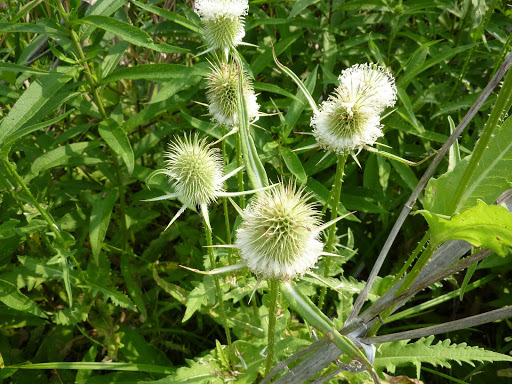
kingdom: Plantae
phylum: Tracheophyta
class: Magnoliopsida
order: Dipsacales
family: Caprifoliaceae
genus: Dipsacus
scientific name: Dipsacus laciniatus
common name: Cut-leaved teasel
